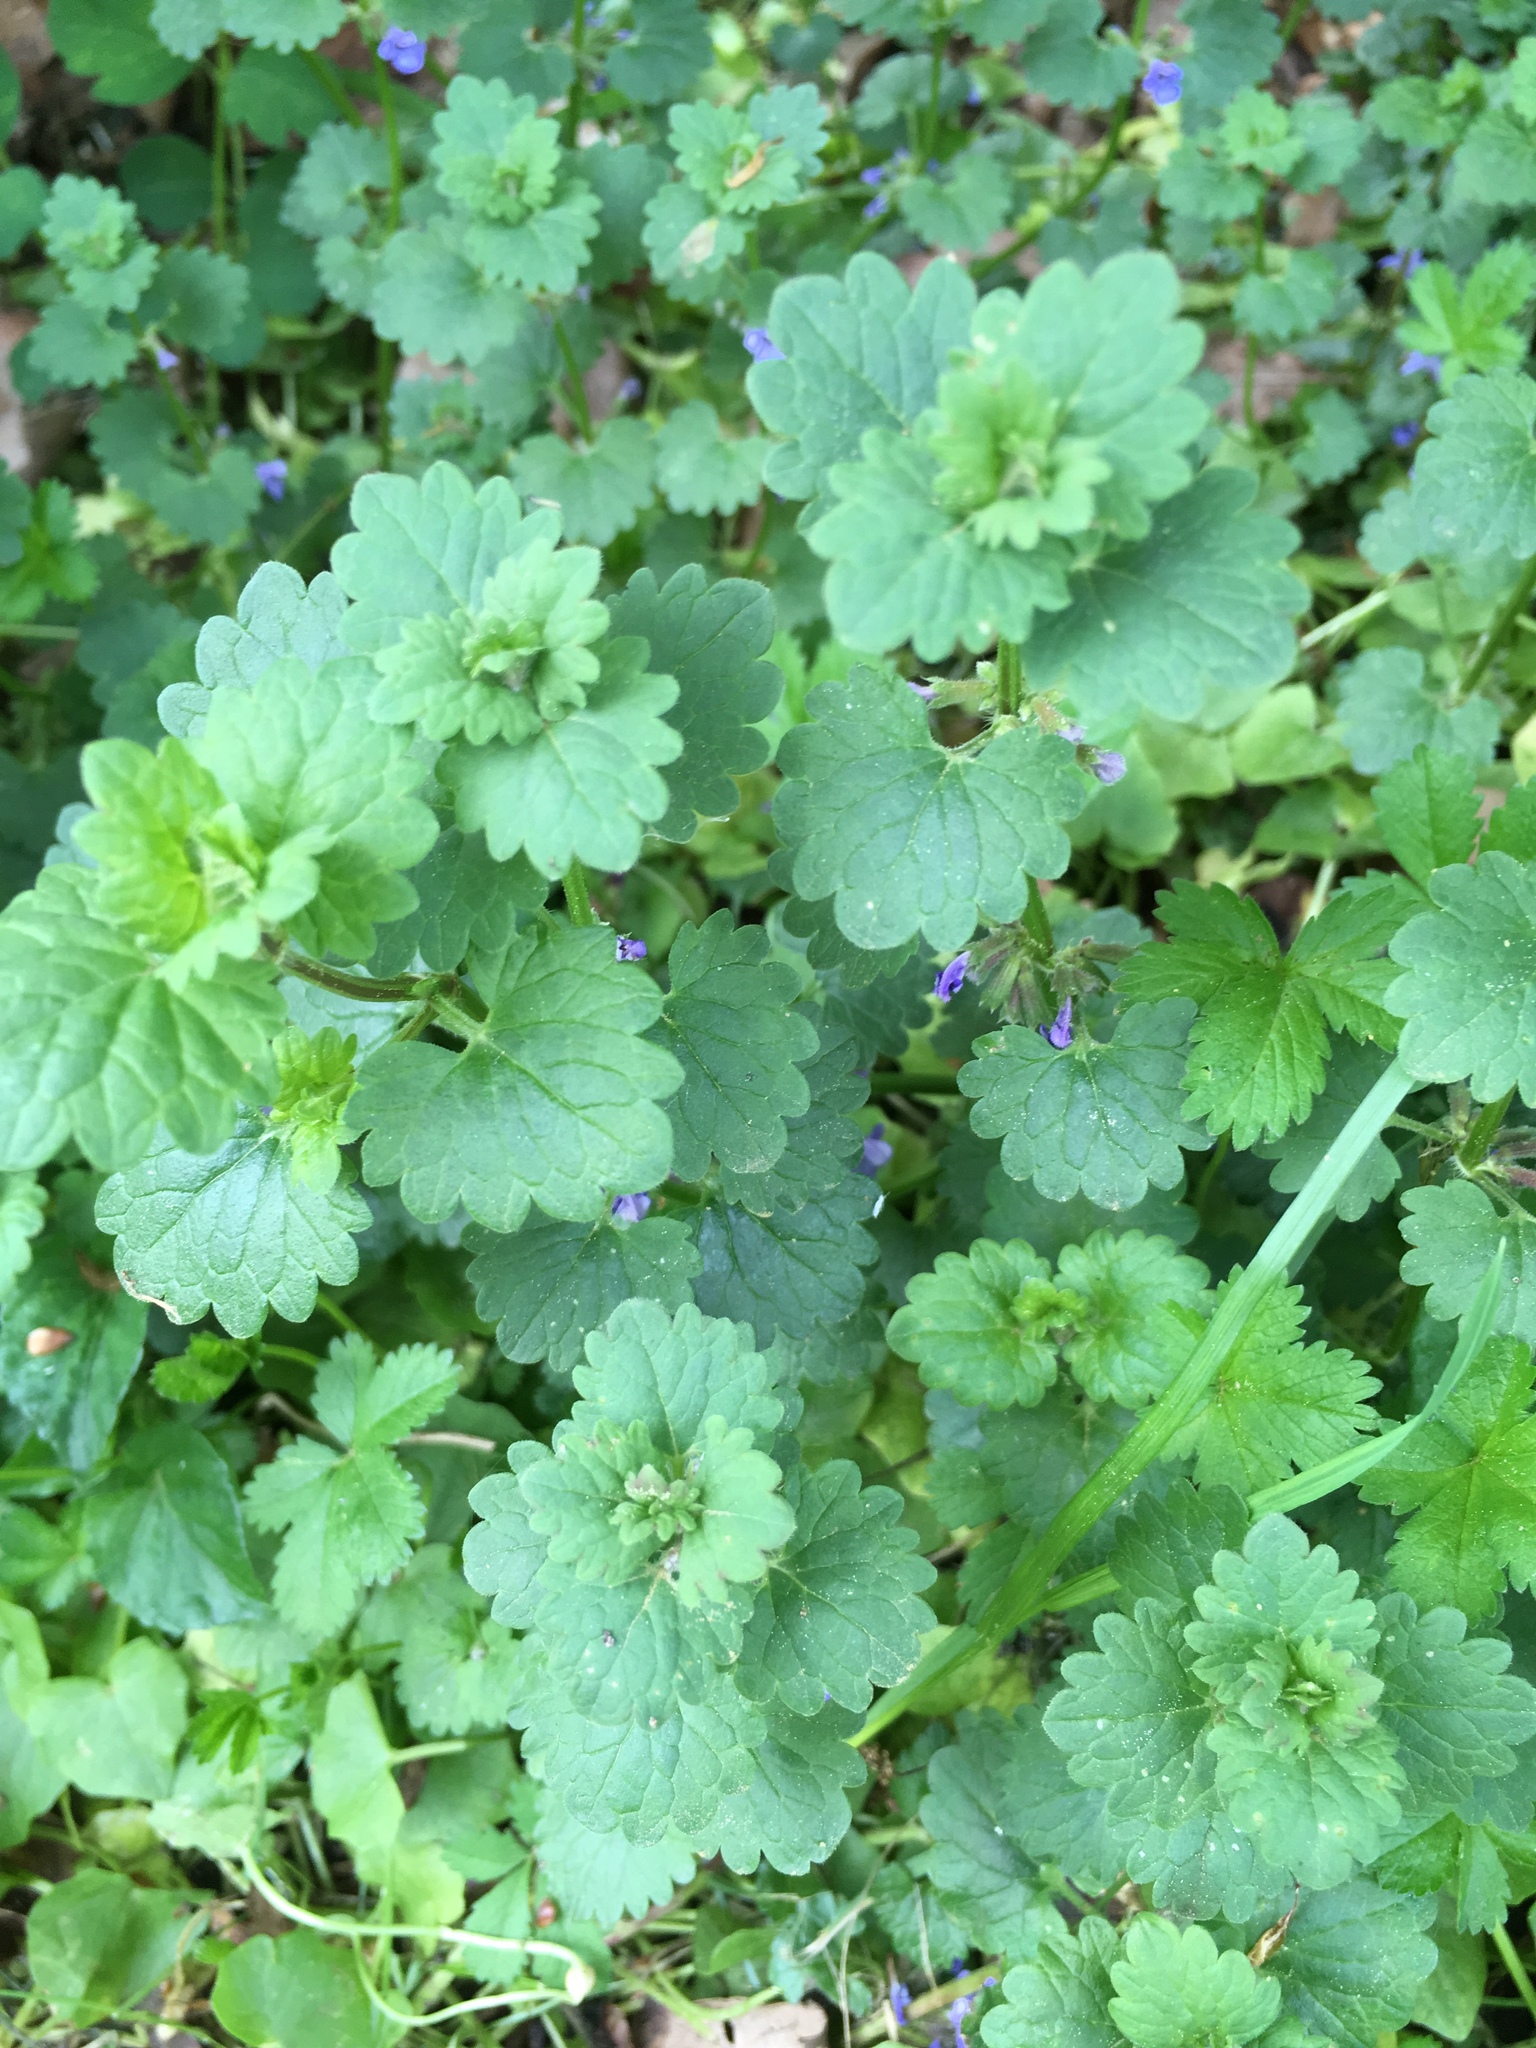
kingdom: Plantae
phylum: Tracheophyta
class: Magnoliopsida
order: Lamiales
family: Lamiaceae
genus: Glechoma
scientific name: Glechoma hederacea
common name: Ground ivy
